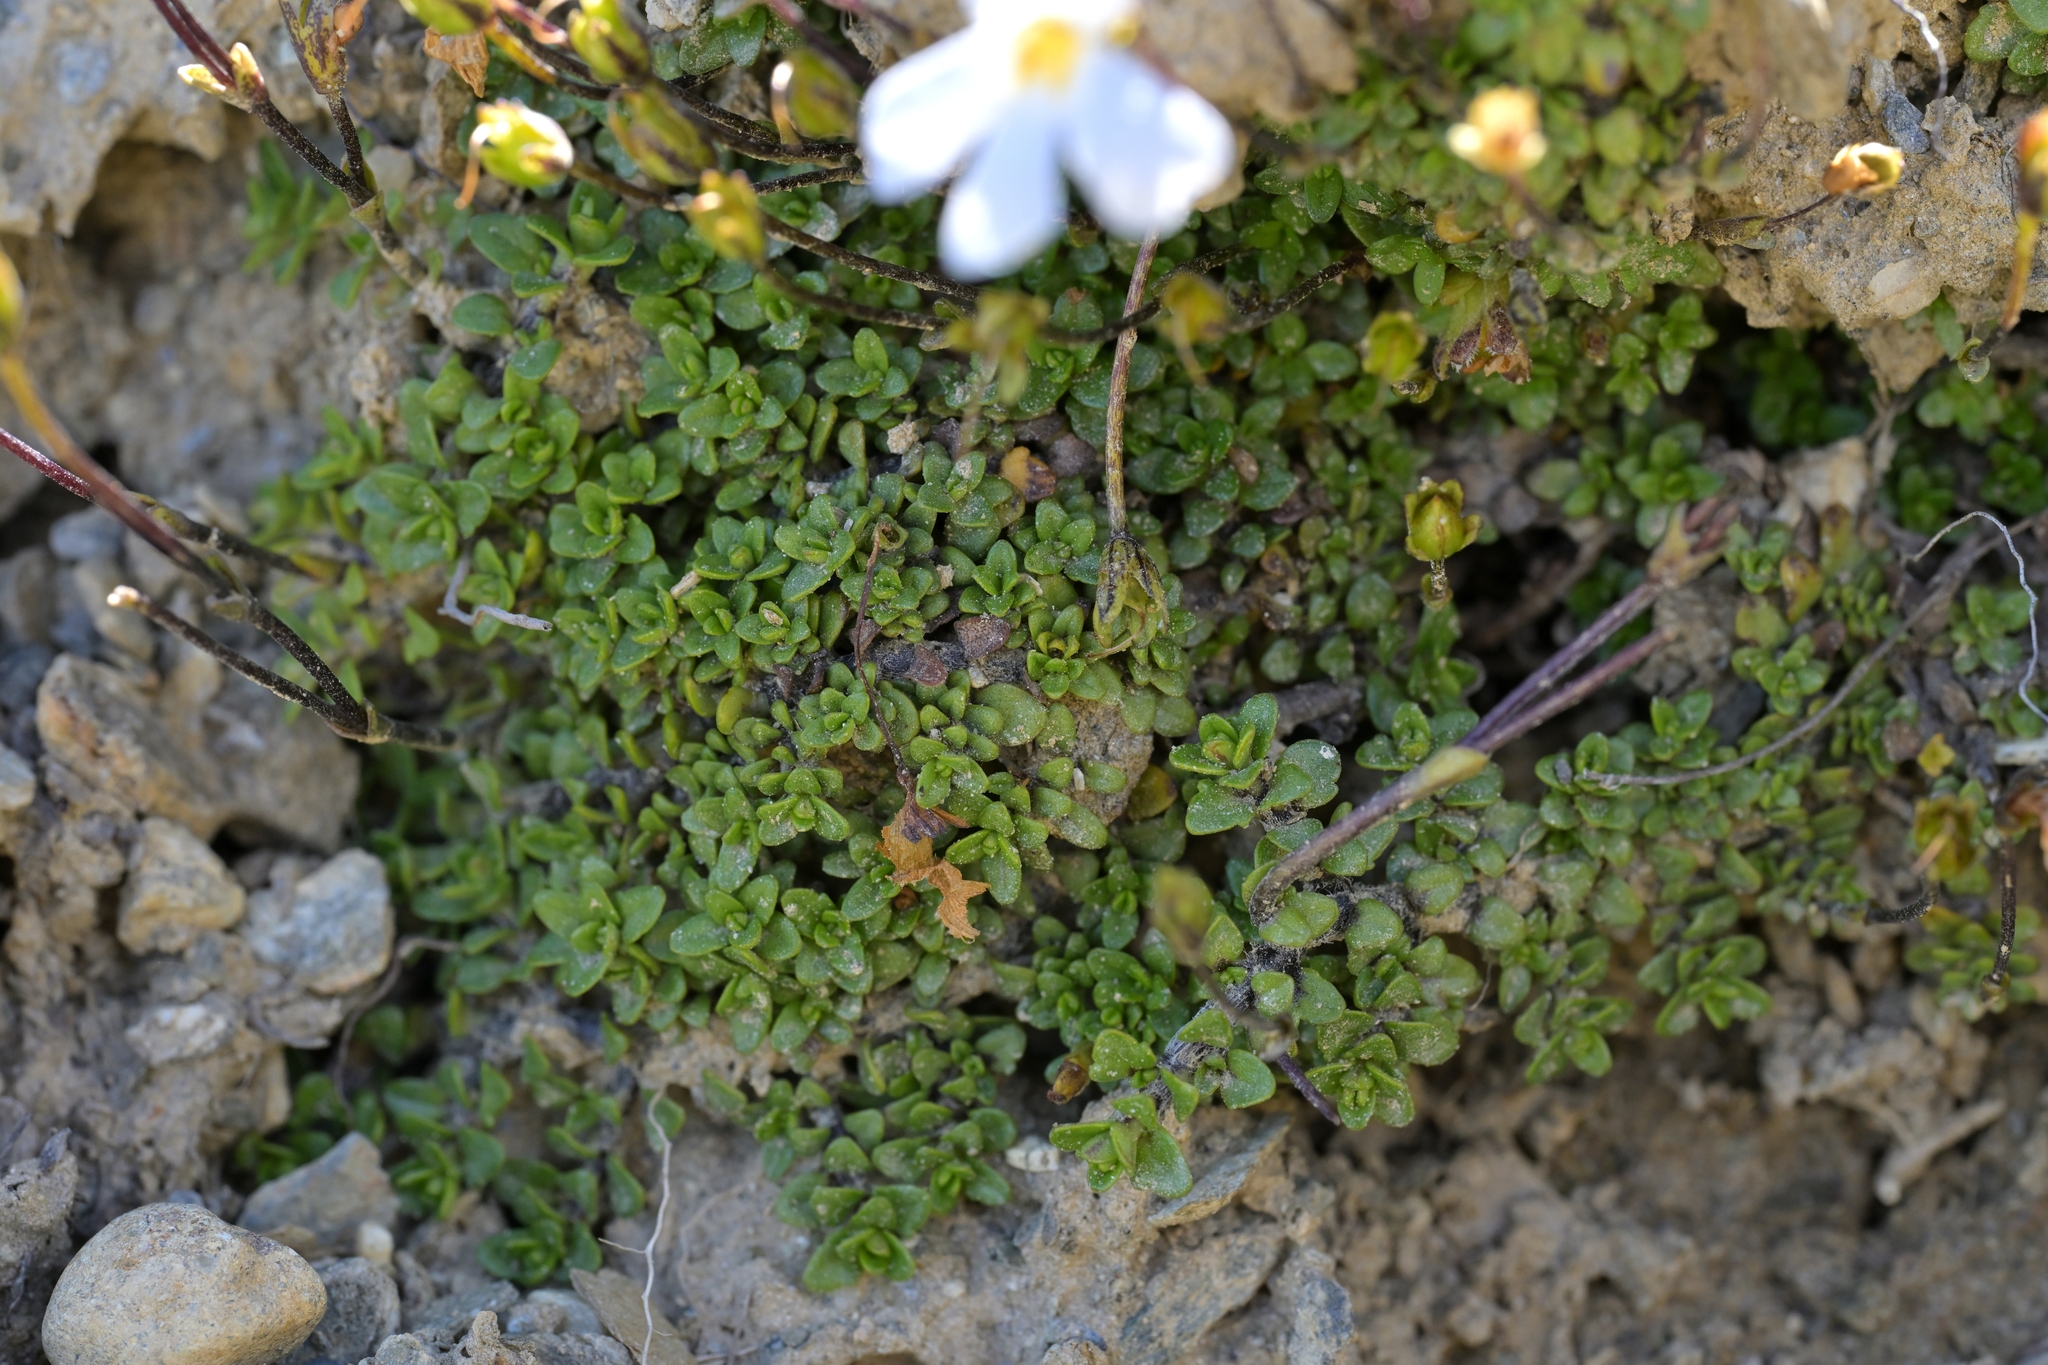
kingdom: Plantae
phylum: Tracheophyta
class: Magnoliopsida
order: Lamiales
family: Plantaginaceae
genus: Ourisia
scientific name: Ourisia caespitosa
